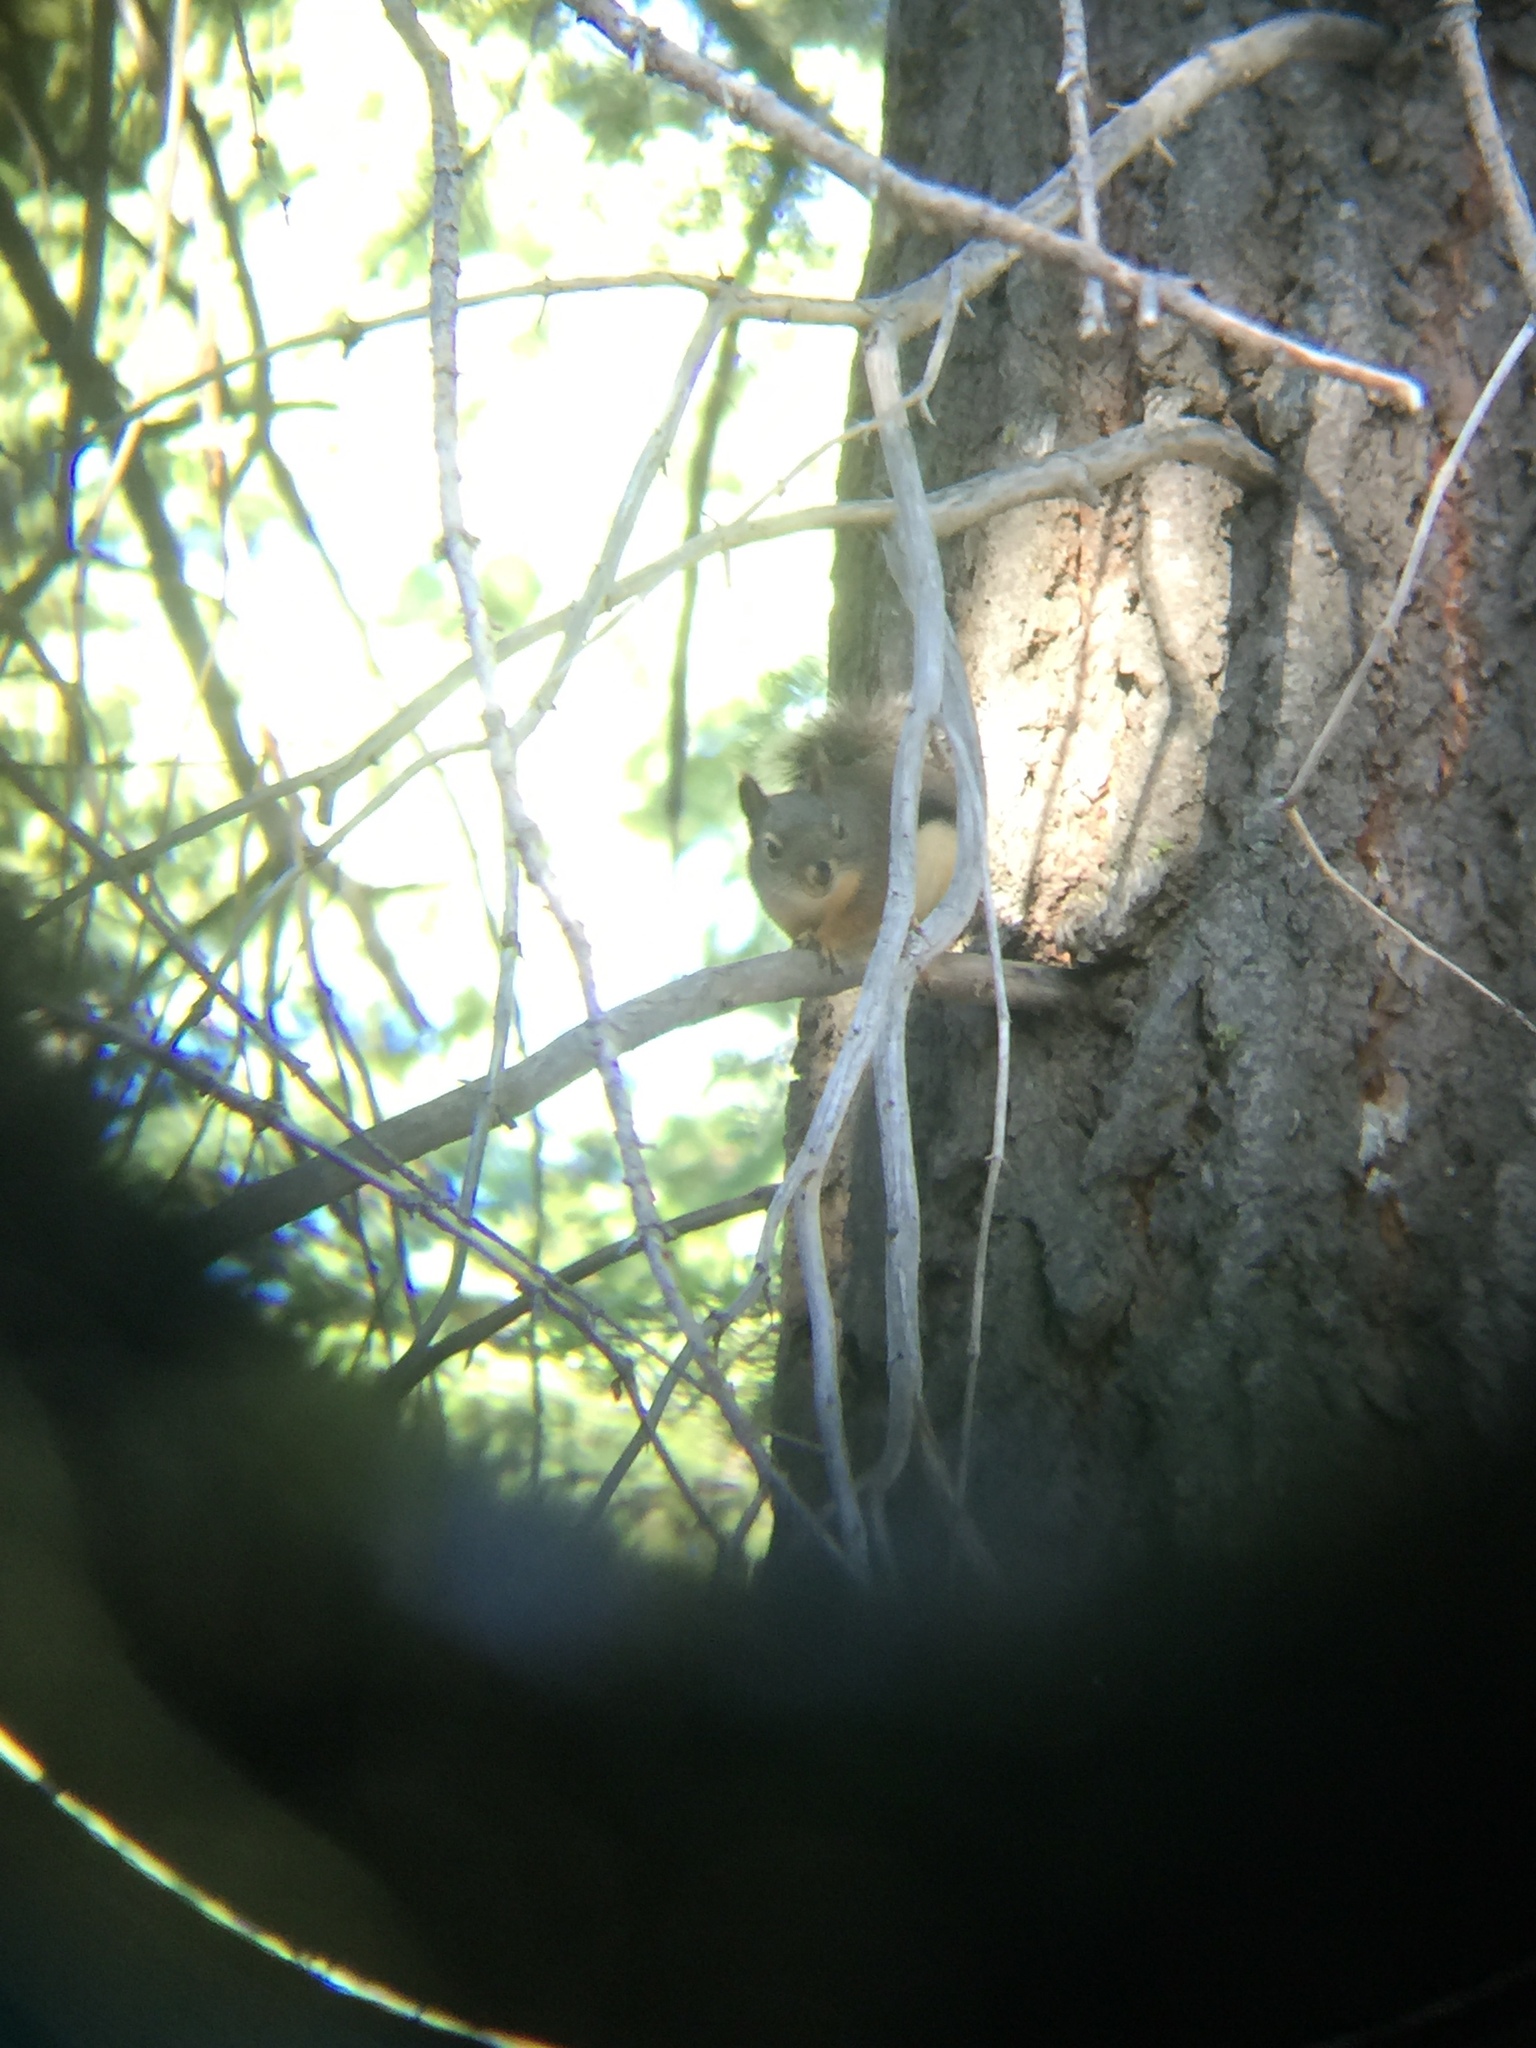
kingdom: Animalia
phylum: Chordata
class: Mammalia
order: Rodentia
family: Sciuridae
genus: Tamiasciurus
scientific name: Tamiasciurus douglasii
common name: Douglas's squirrel
